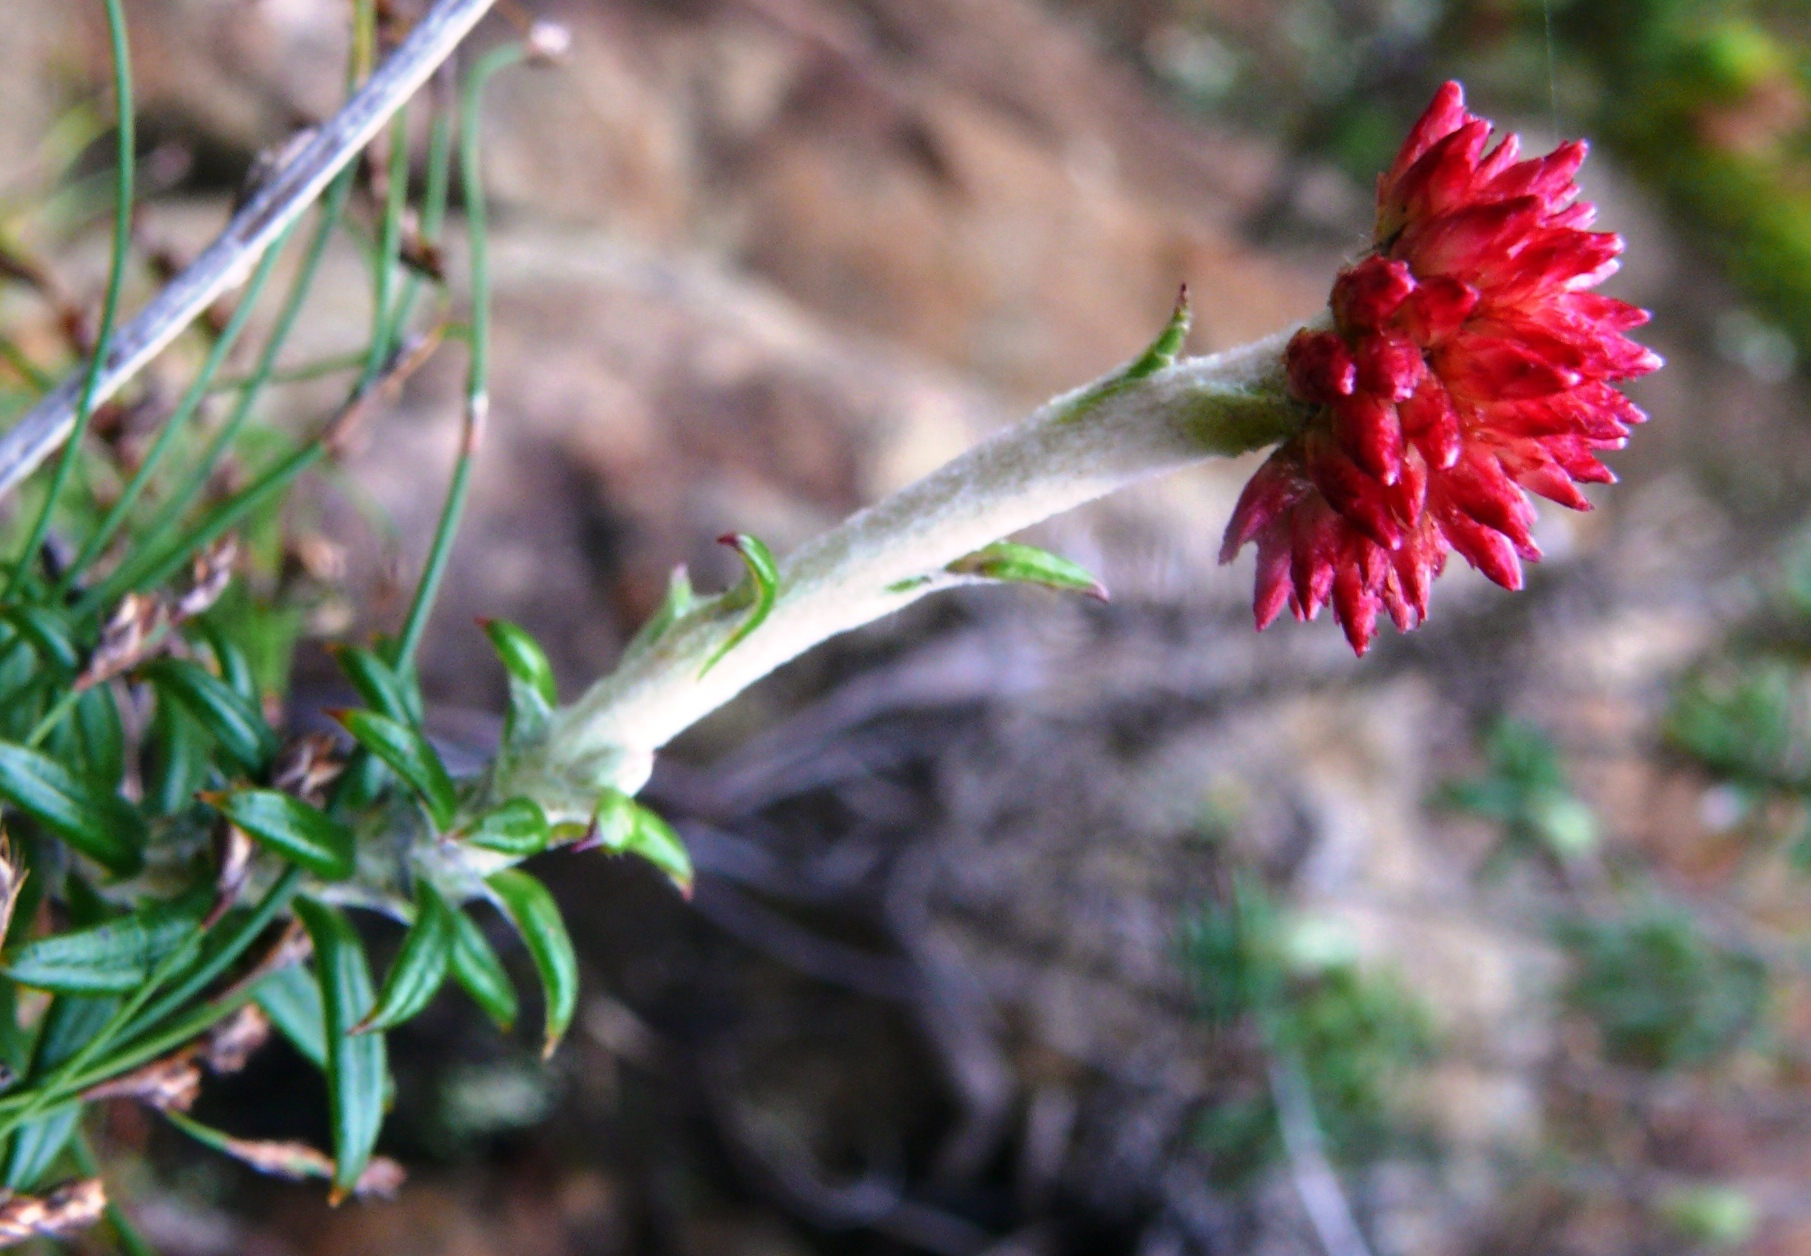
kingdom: Plantae
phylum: Tracheophyta
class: Magnoliopsida
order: Asterales
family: Asteraceae
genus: Anaxeton
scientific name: Anaxeton arborescens
